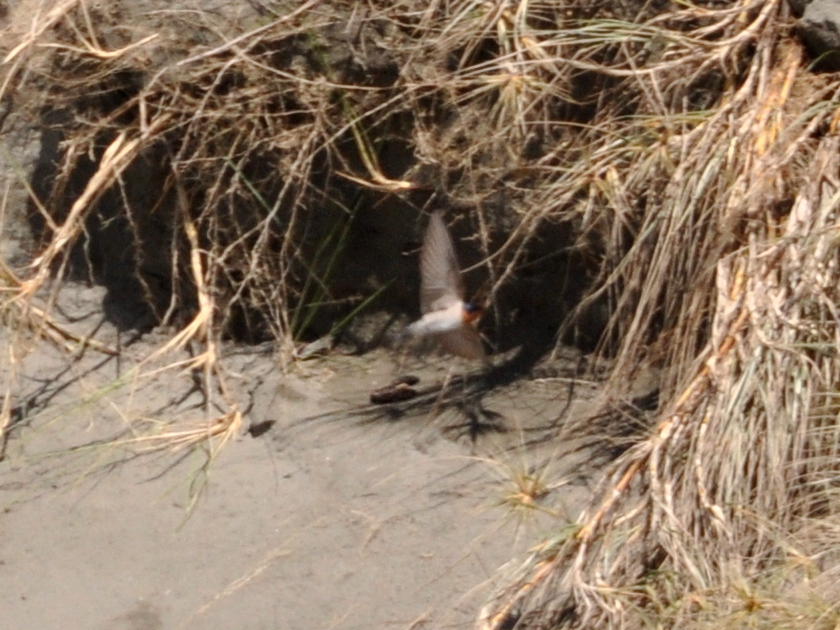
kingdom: Animalia
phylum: Chordata
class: Aves
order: Passeriformes
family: Hirundinidae
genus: Hirundo
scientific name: Hirundo neoxena
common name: Welcome swallow
